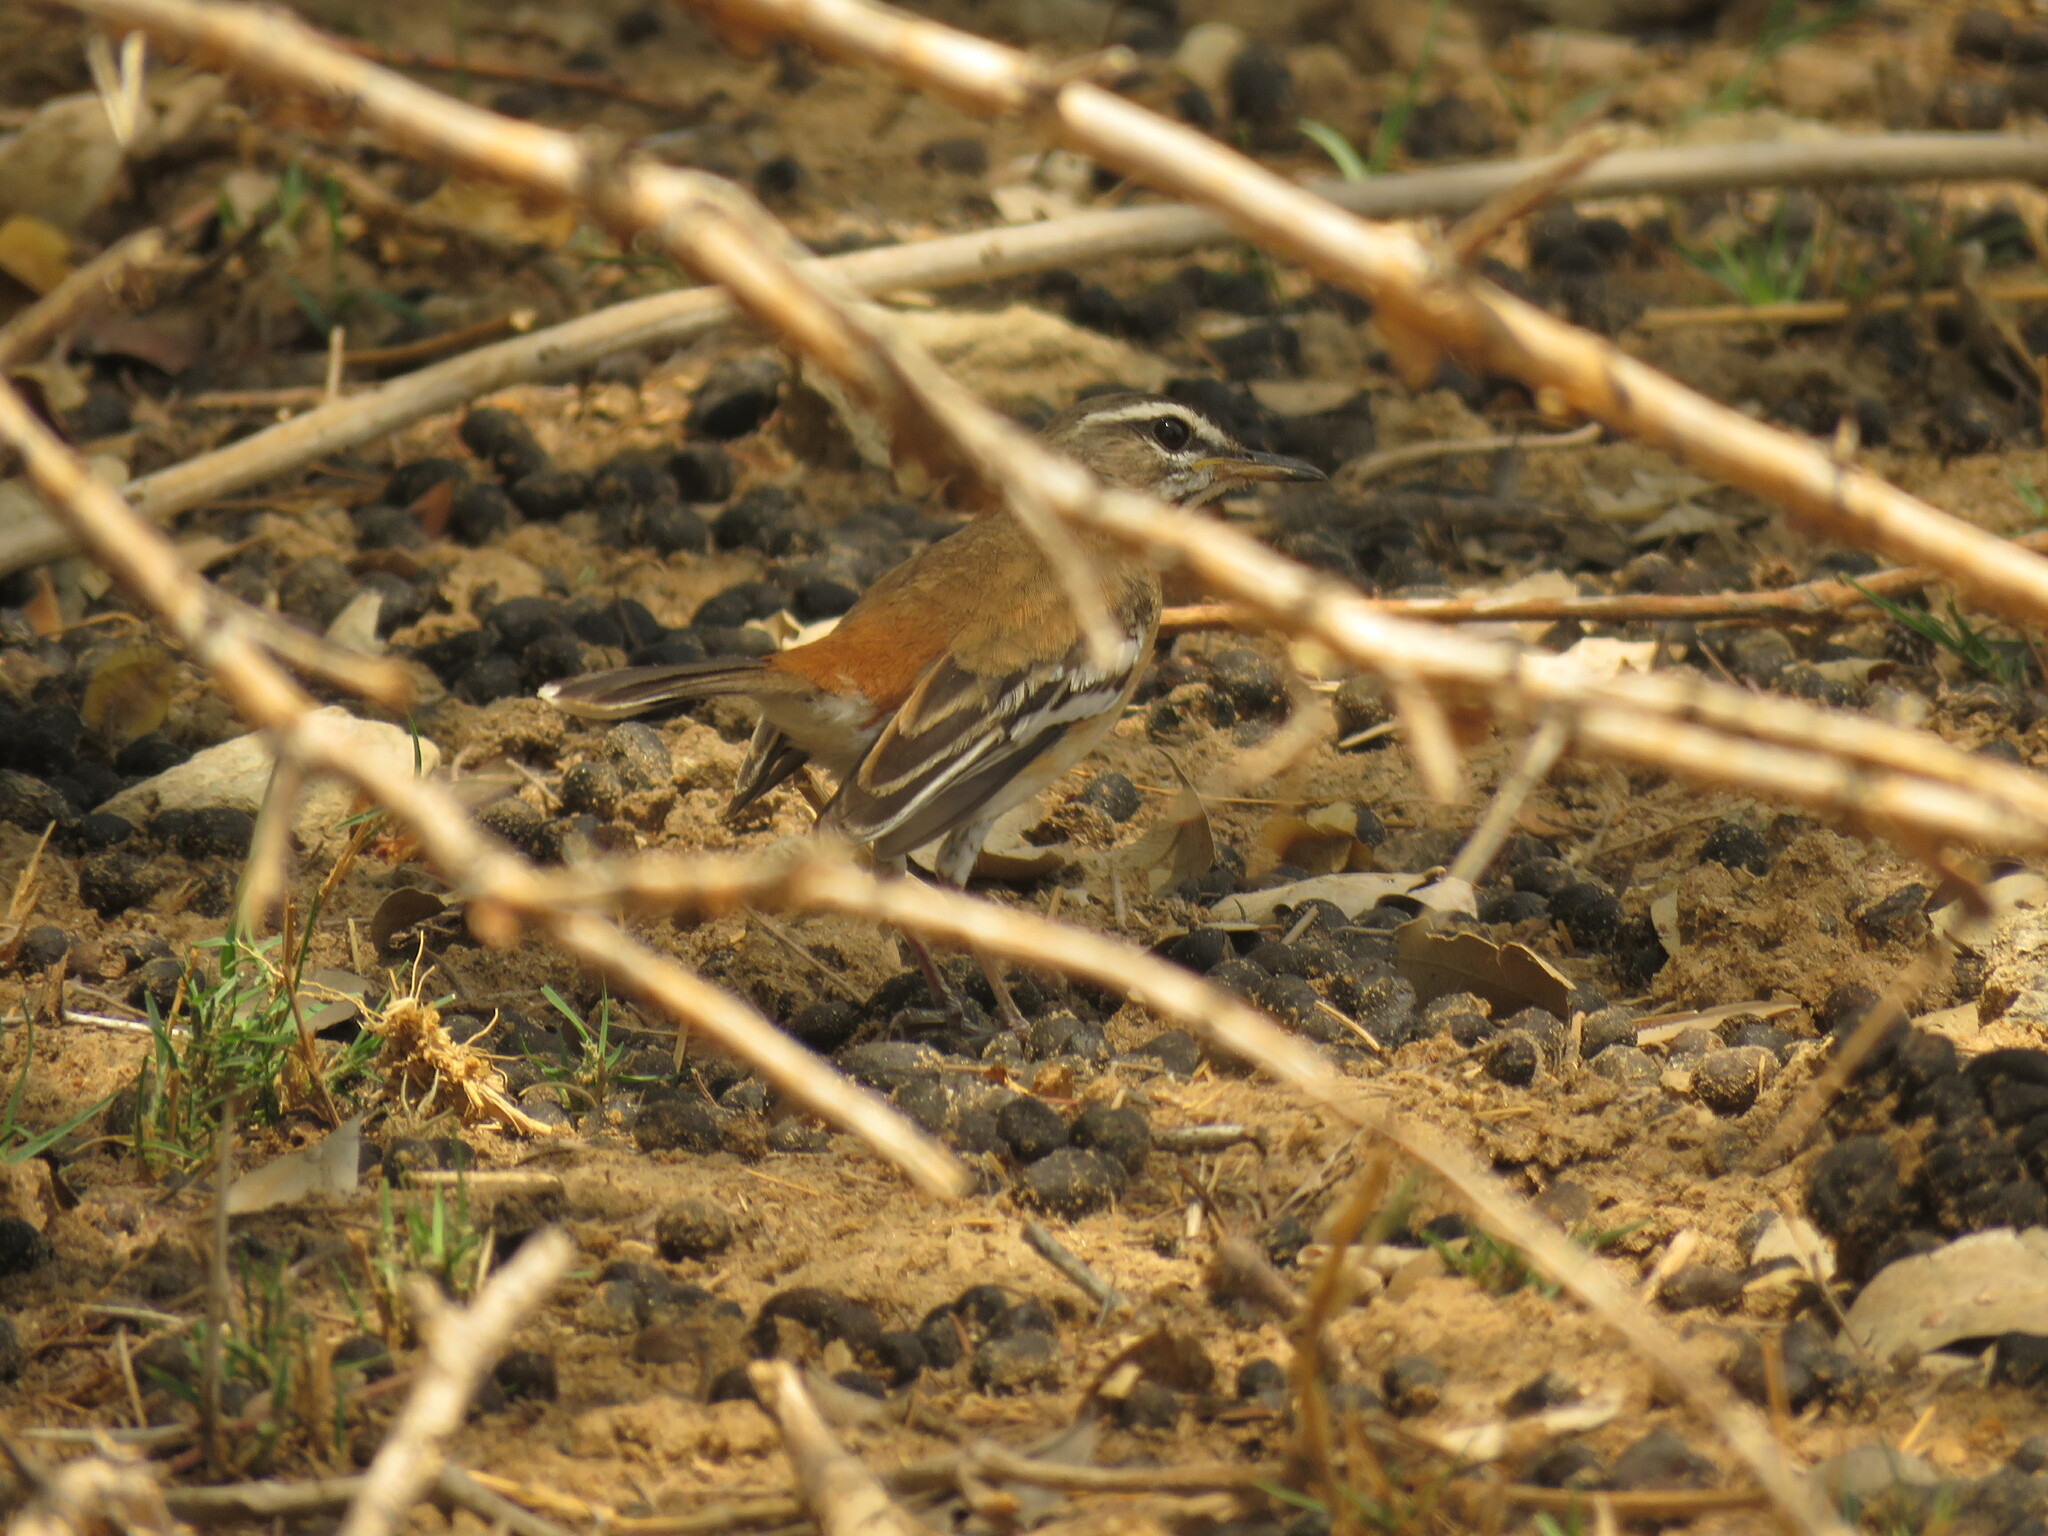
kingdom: Animalia
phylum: Chordata
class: Aves
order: Passeriformes
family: Muscicapidae
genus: Erythropygia
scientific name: Erythropygia leucophrys
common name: White-browed scrub robin
